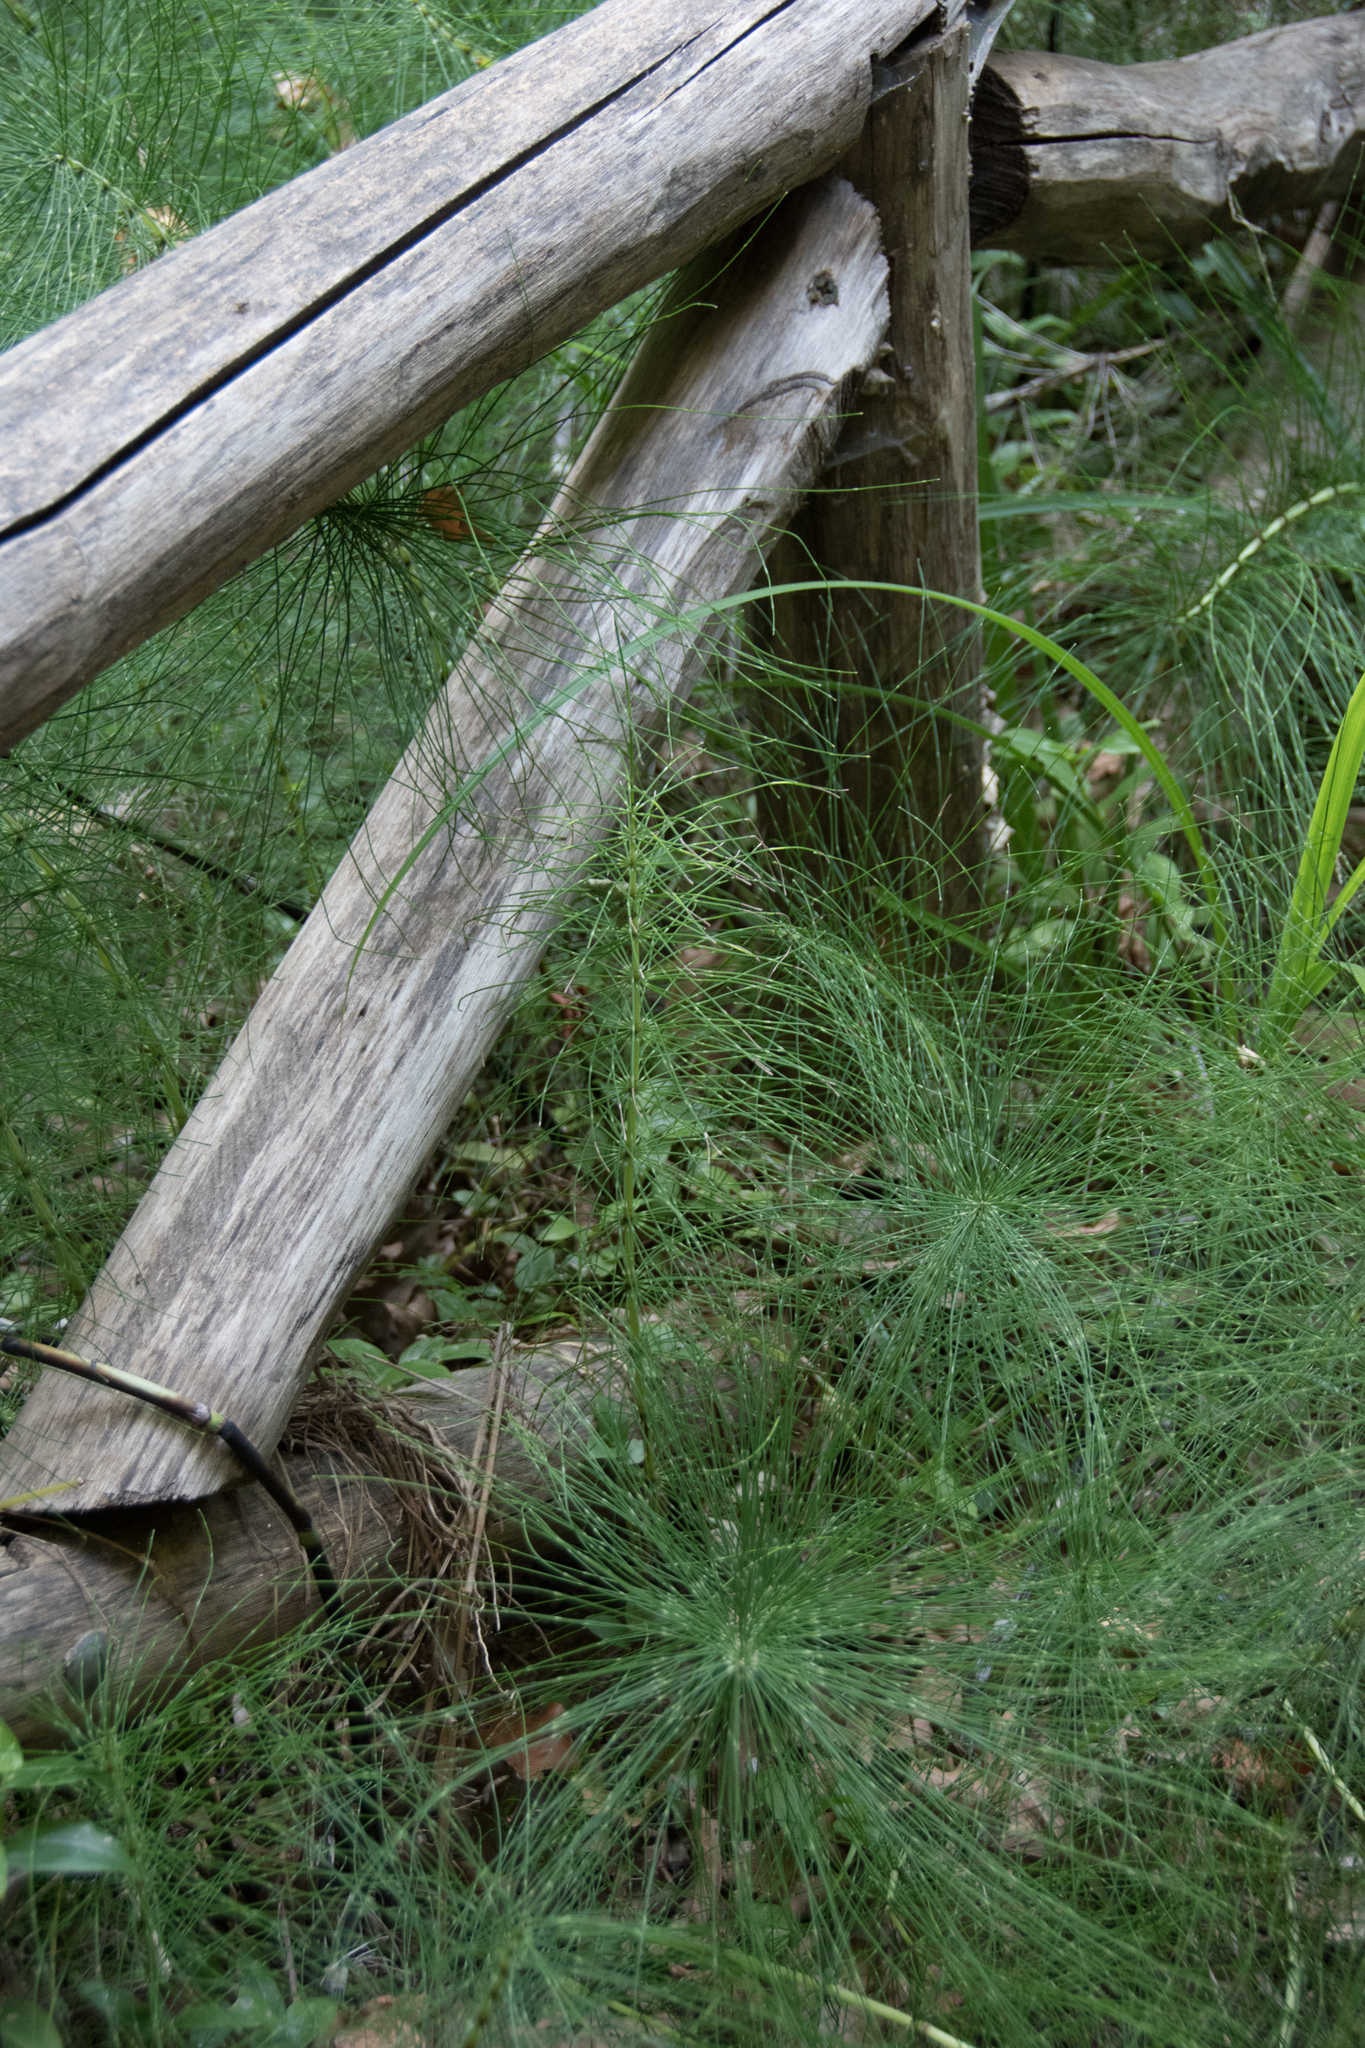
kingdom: Plantae
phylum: Tracheophyta
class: Polypodiopsida
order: Equisetales
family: Equisetaceae
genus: Equisetum
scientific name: Equisetum telmateia
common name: Great horsetail
